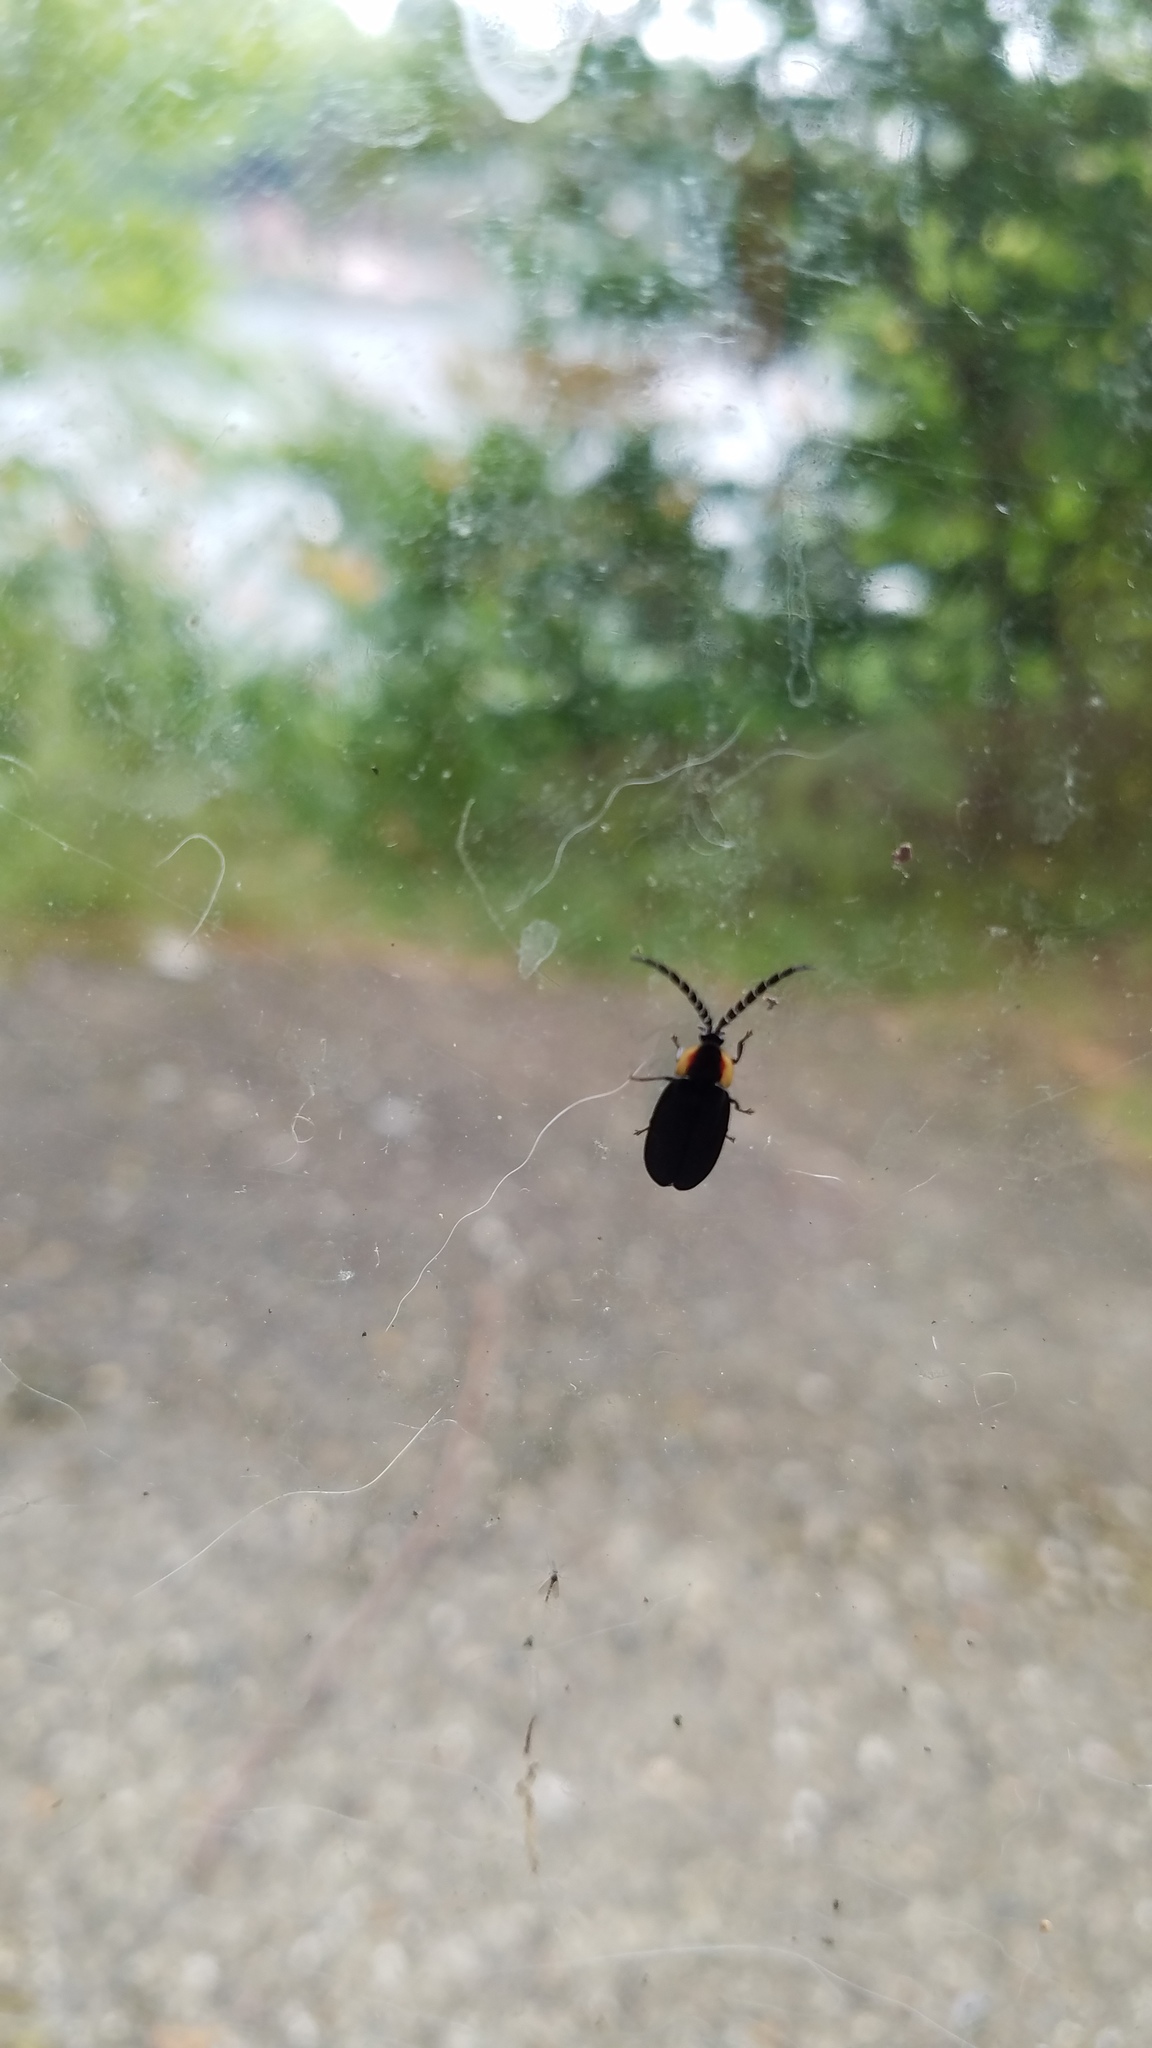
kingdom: Animalia
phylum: Arthropoda
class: Insecta
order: Coleoptera
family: Lampyridae
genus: Lucidota
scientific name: Lucidota atra
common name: Black firefly
